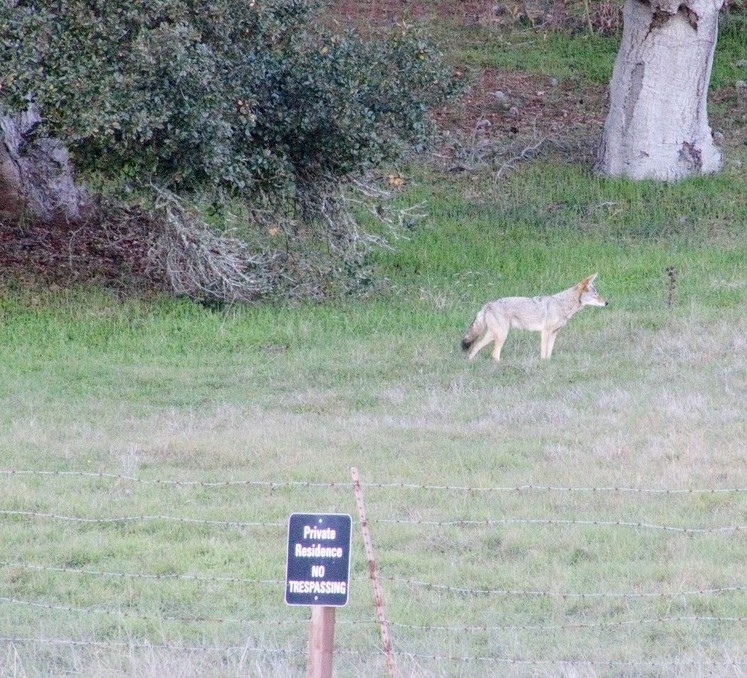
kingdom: Animalia
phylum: Chordata
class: Mammalia
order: Carnivora
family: Canidae
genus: Canis
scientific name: Canis latrans
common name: Coyote
